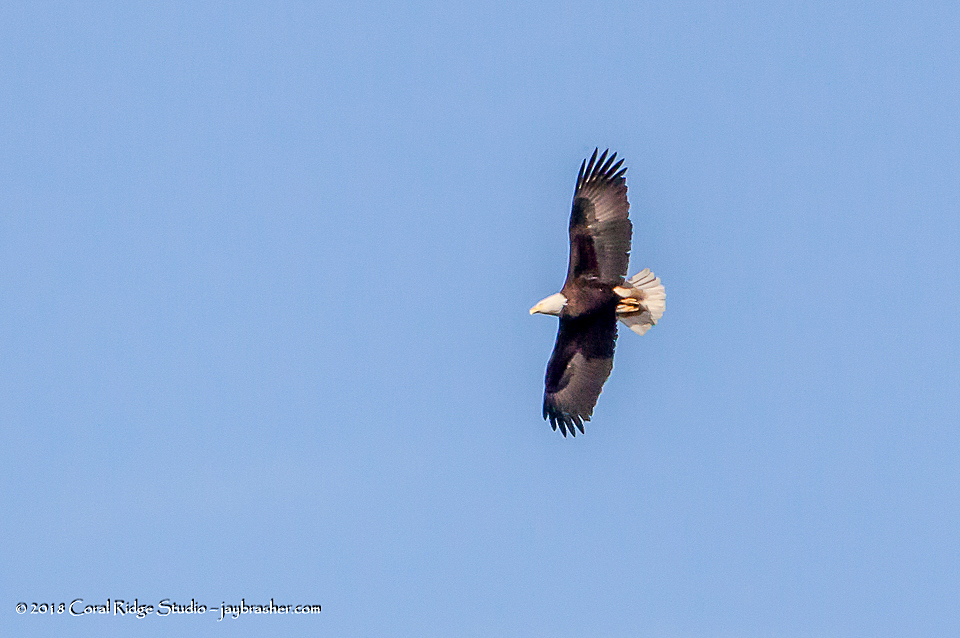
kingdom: Animalia
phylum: Chordata
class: Aves
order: Accipitriformes
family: Accipitridae
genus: Haliaeetus
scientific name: Haliaeetus leucocephalus
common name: Bald eagle
